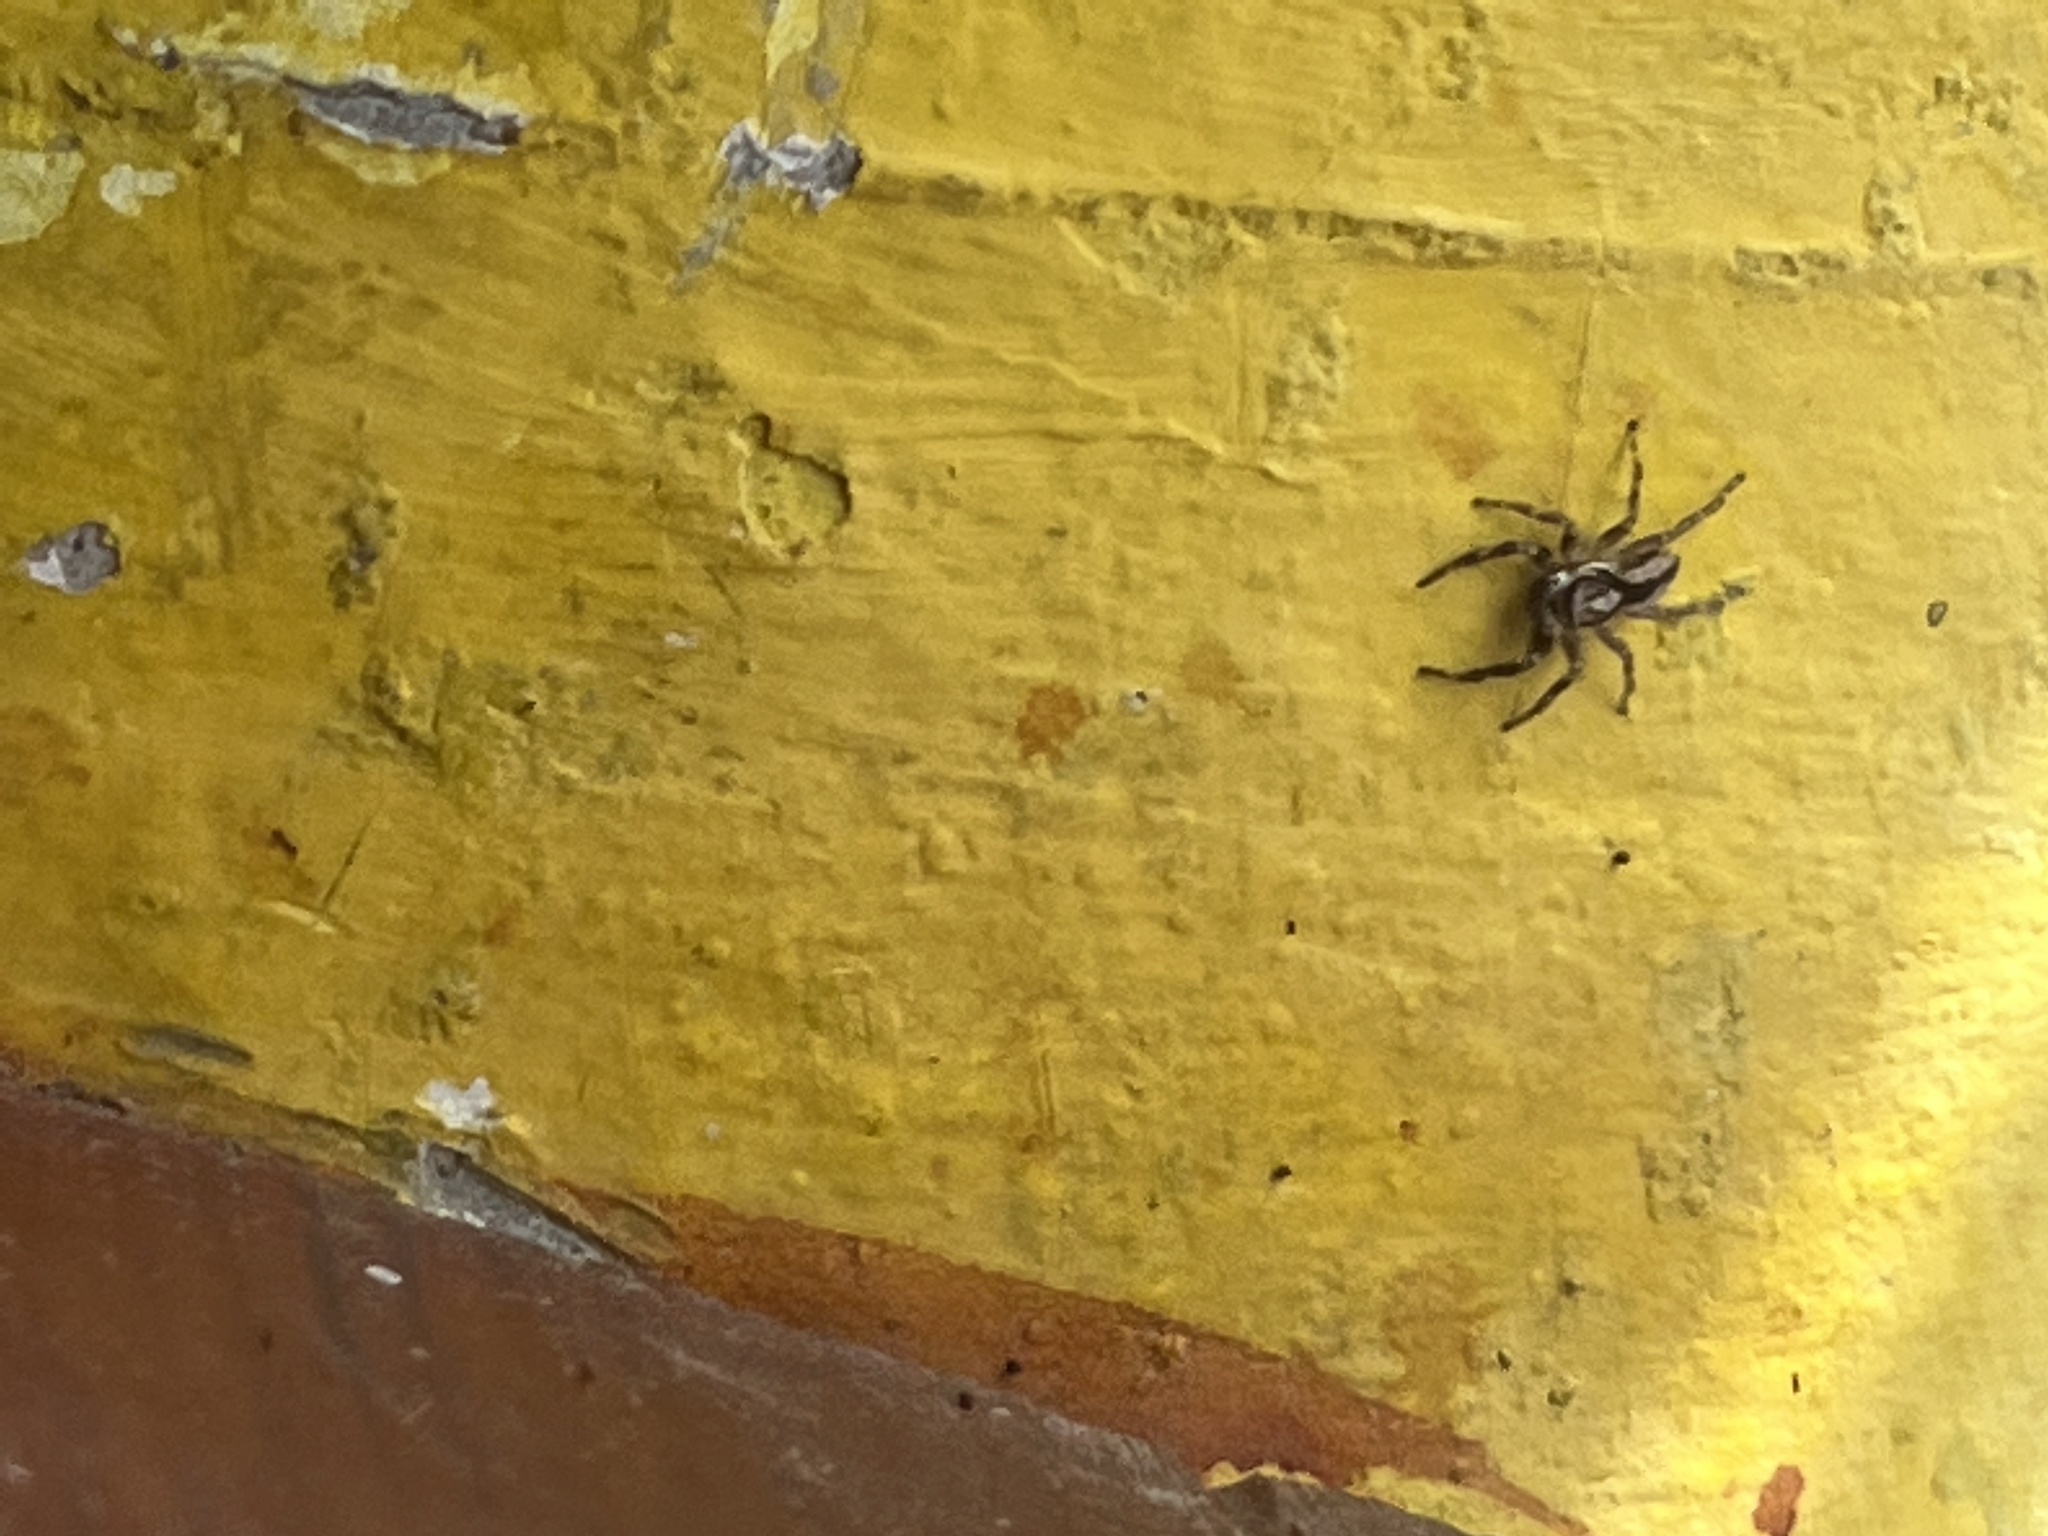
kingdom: Animalia
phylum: Arthropoda
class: Arachnida
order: Araneae
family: Salticidae
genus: Menemerus
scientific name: Menemerus bivittatus
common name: Gray wall jumper
